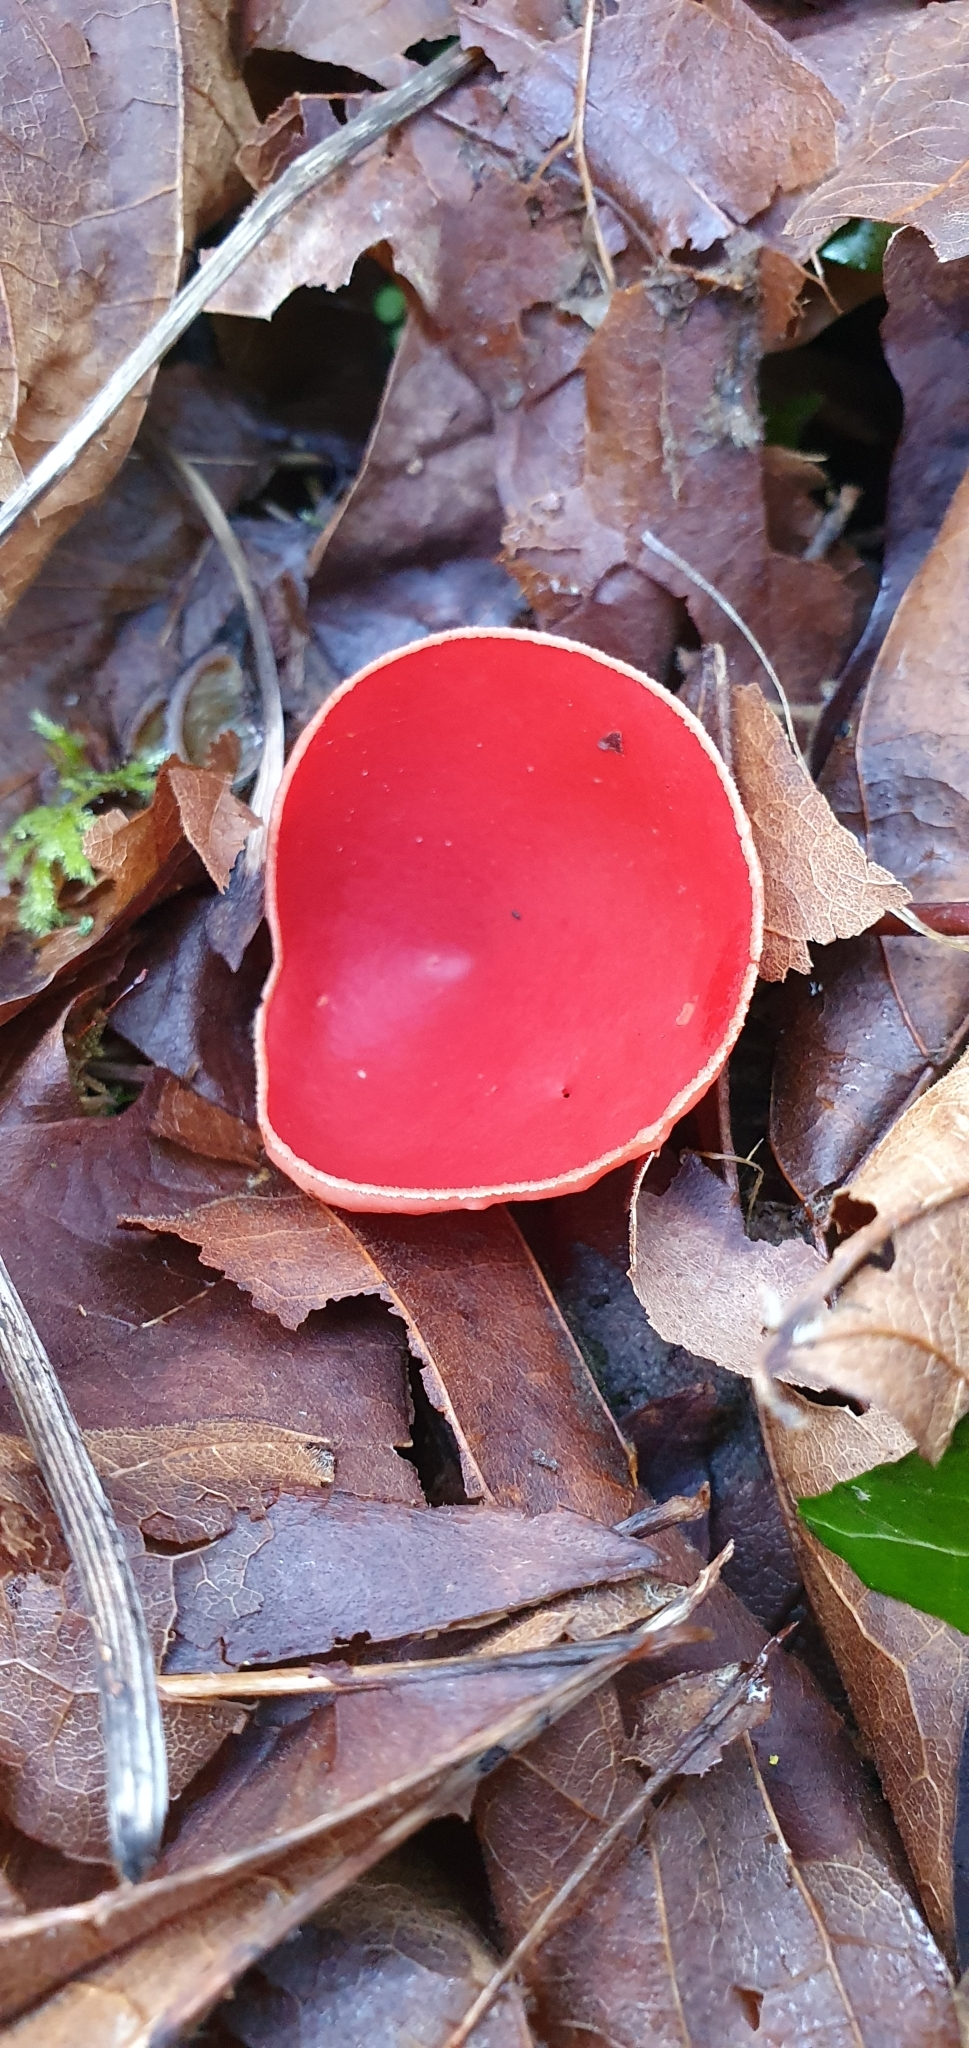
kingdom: Fungi
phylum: Ascomycota
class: Pezizomycetes
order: Pezizales
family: Sarcoscyphaceae
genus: Sarcoscypha
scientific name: Sarcoscypha
